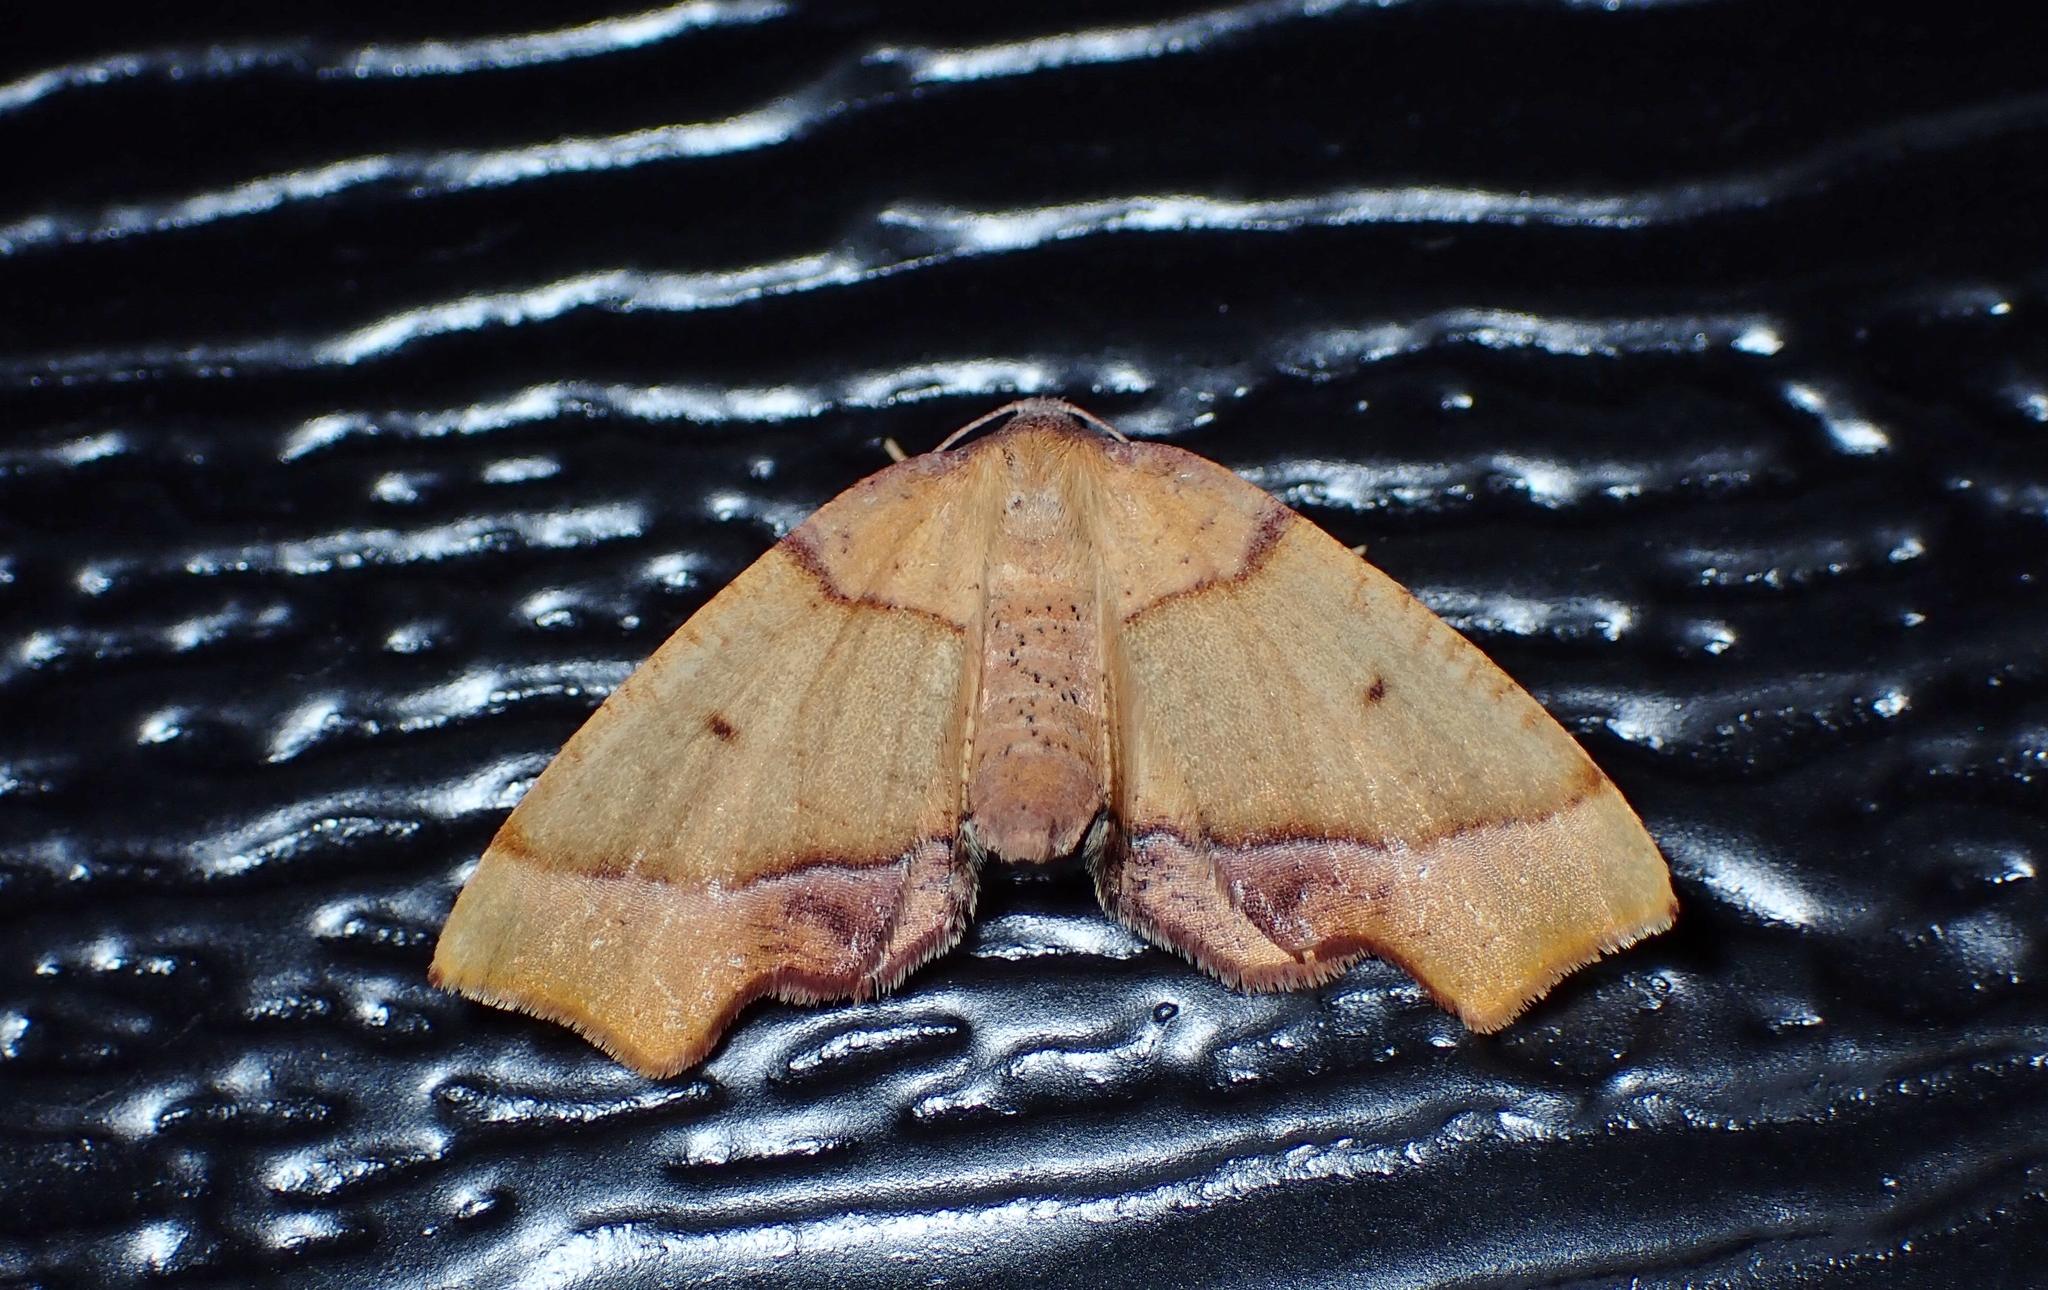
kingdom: Animalia
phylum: Arthropoda
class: Insecta
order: Lepidoptera
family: Geometridae
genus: Plagodis
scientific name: Plagodis phlogosaria
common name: Straight-lined plagodis
